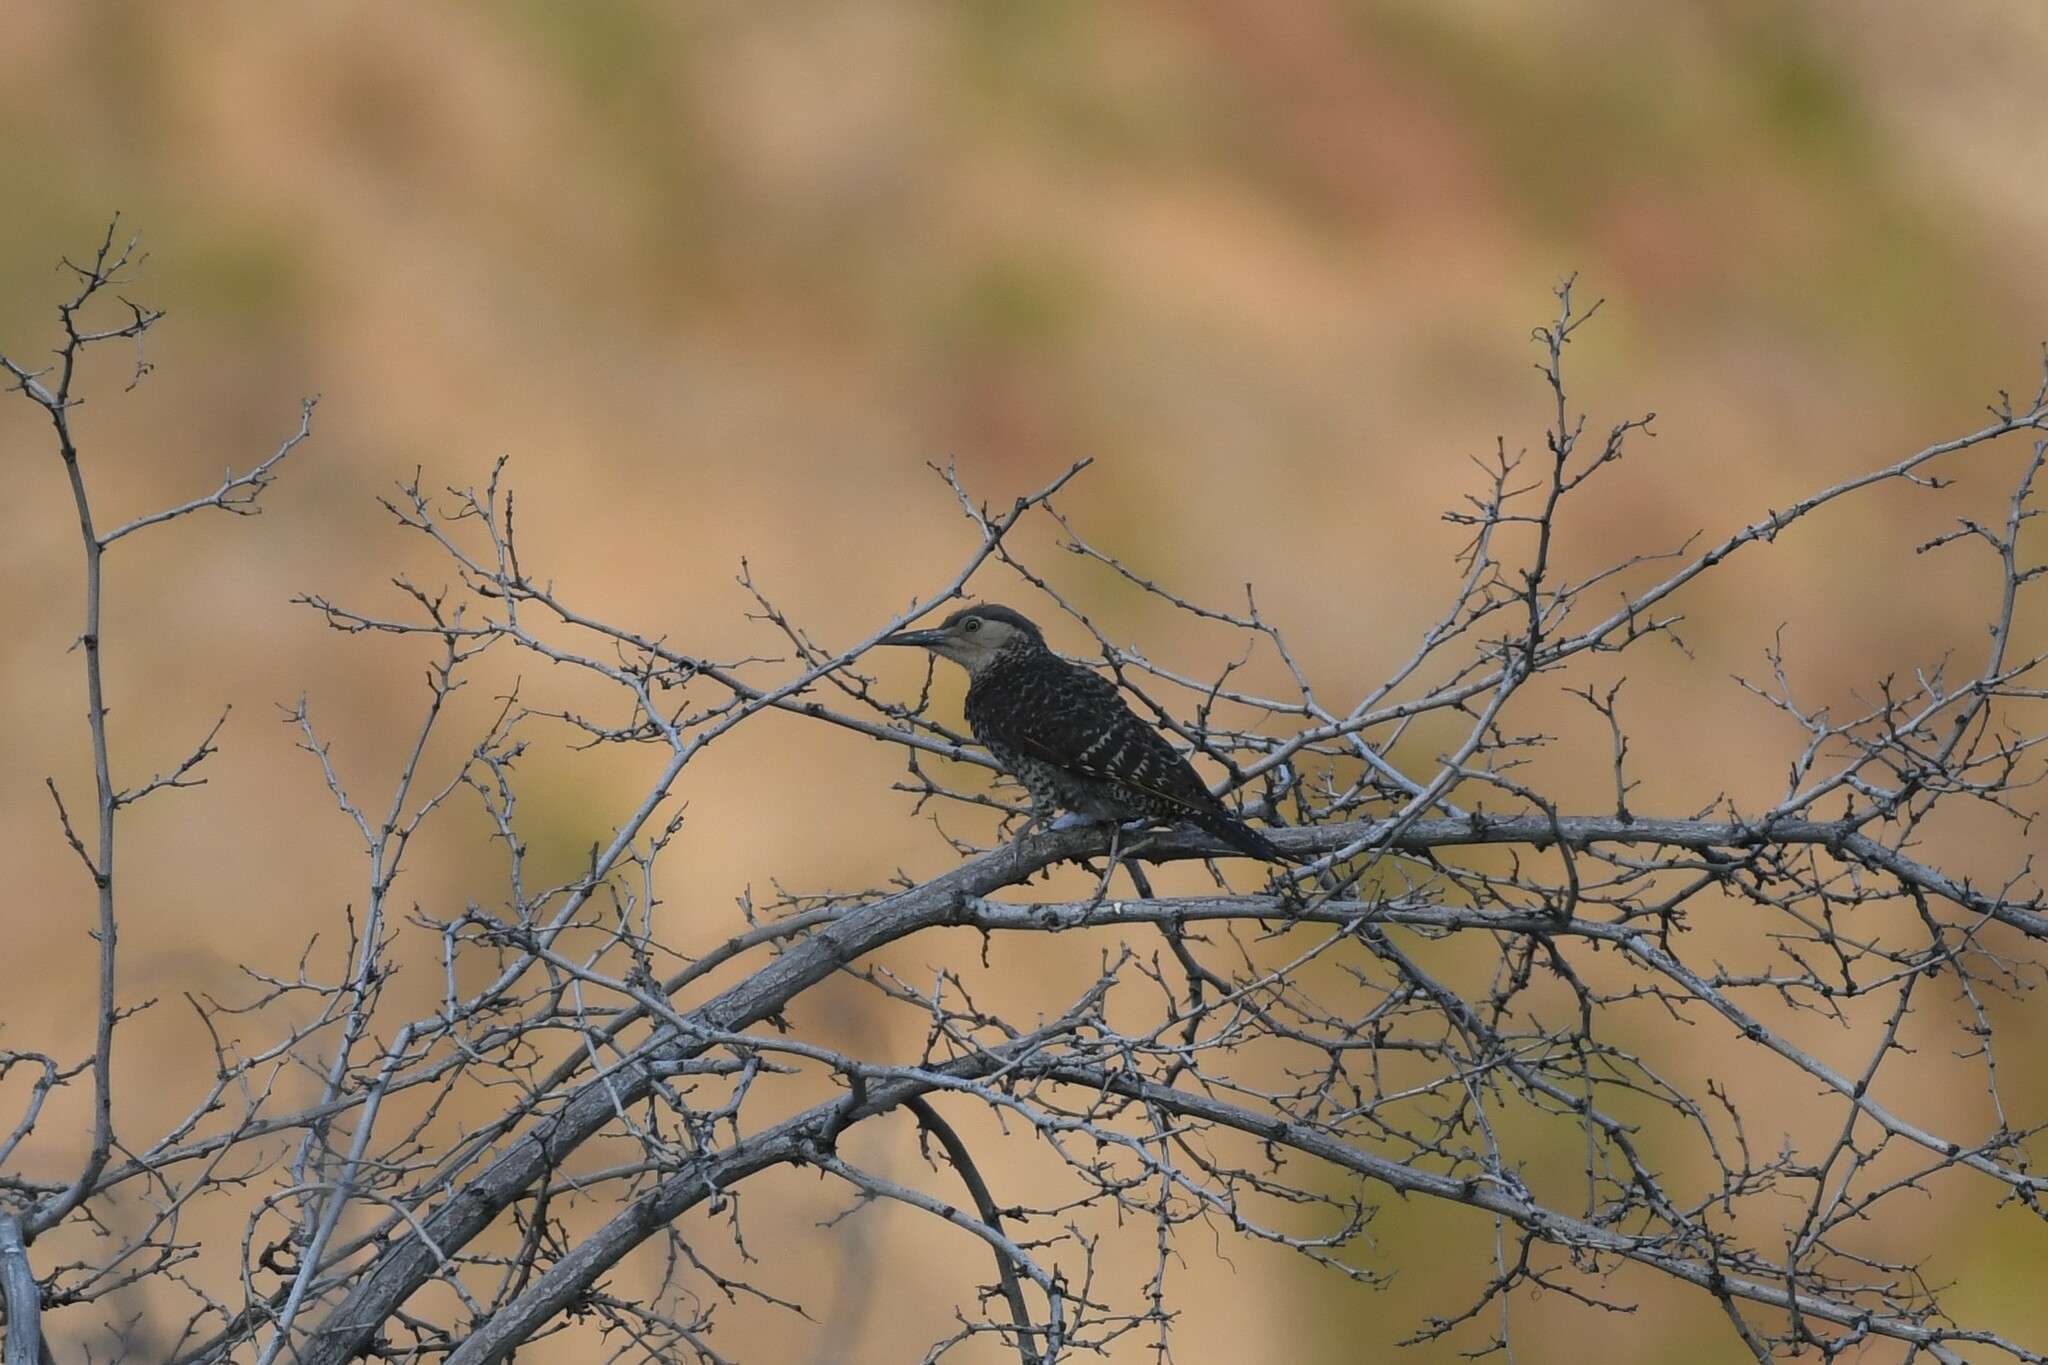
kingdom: Animalia
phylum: Chordata
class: Aves
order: Piciformes
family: Picidae
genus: Colaptes
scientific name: Colaptes pitius
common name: Chilean flicker
